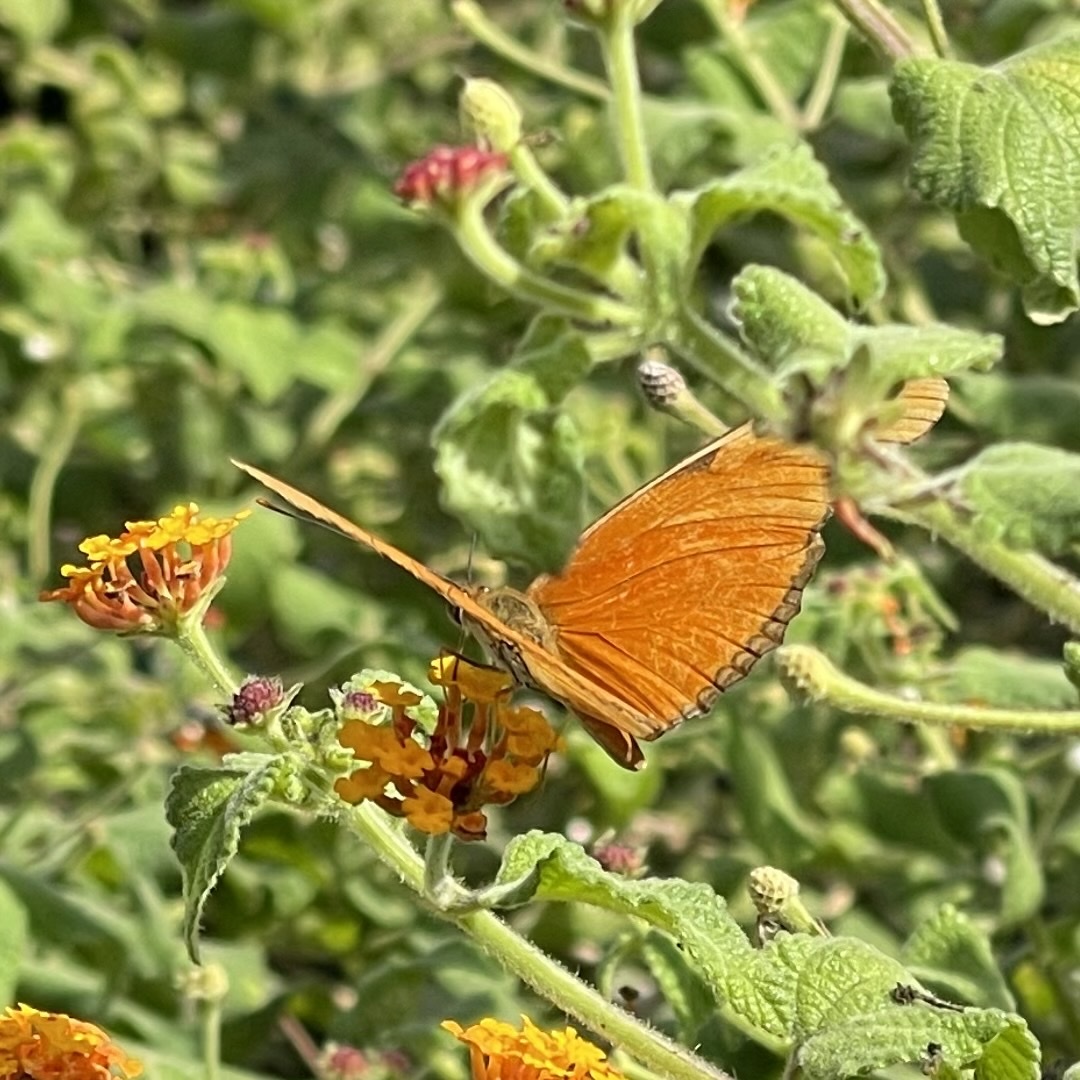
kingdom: Animalia
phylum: Arthropoda
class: Insecta
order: Lepidoptera
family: Nymphalidae
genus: Dryas
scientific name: Dryas iulia
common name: Flambeau
